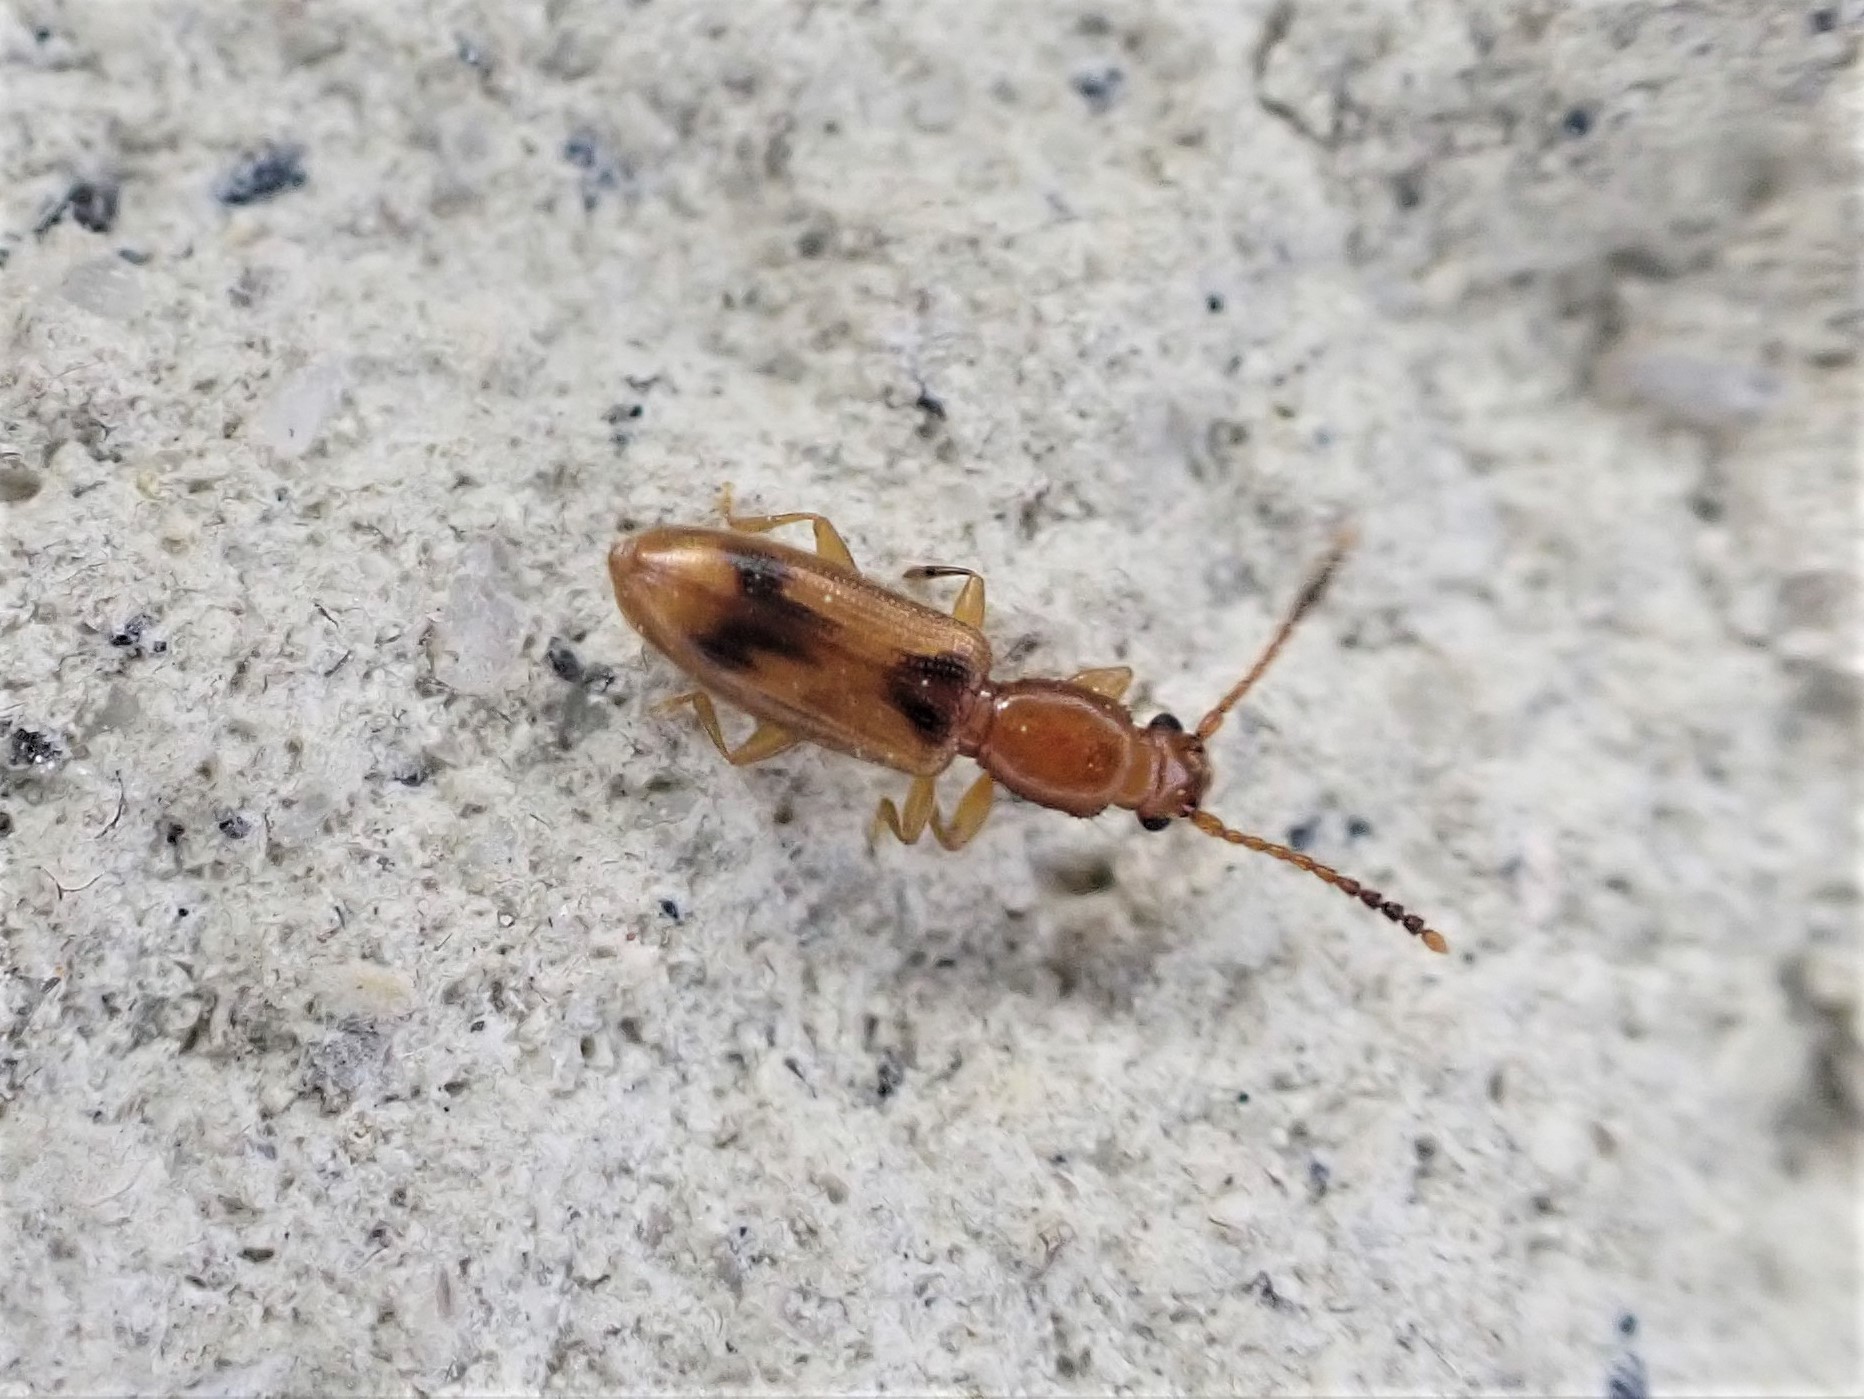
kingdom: Animalia
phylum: Arthropoda
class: Insecta
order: Coleoptera
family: Silvanidae
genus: Cryptamorpha
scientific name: Cryptamorpha desjardinsi
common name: Cryptamorpha
